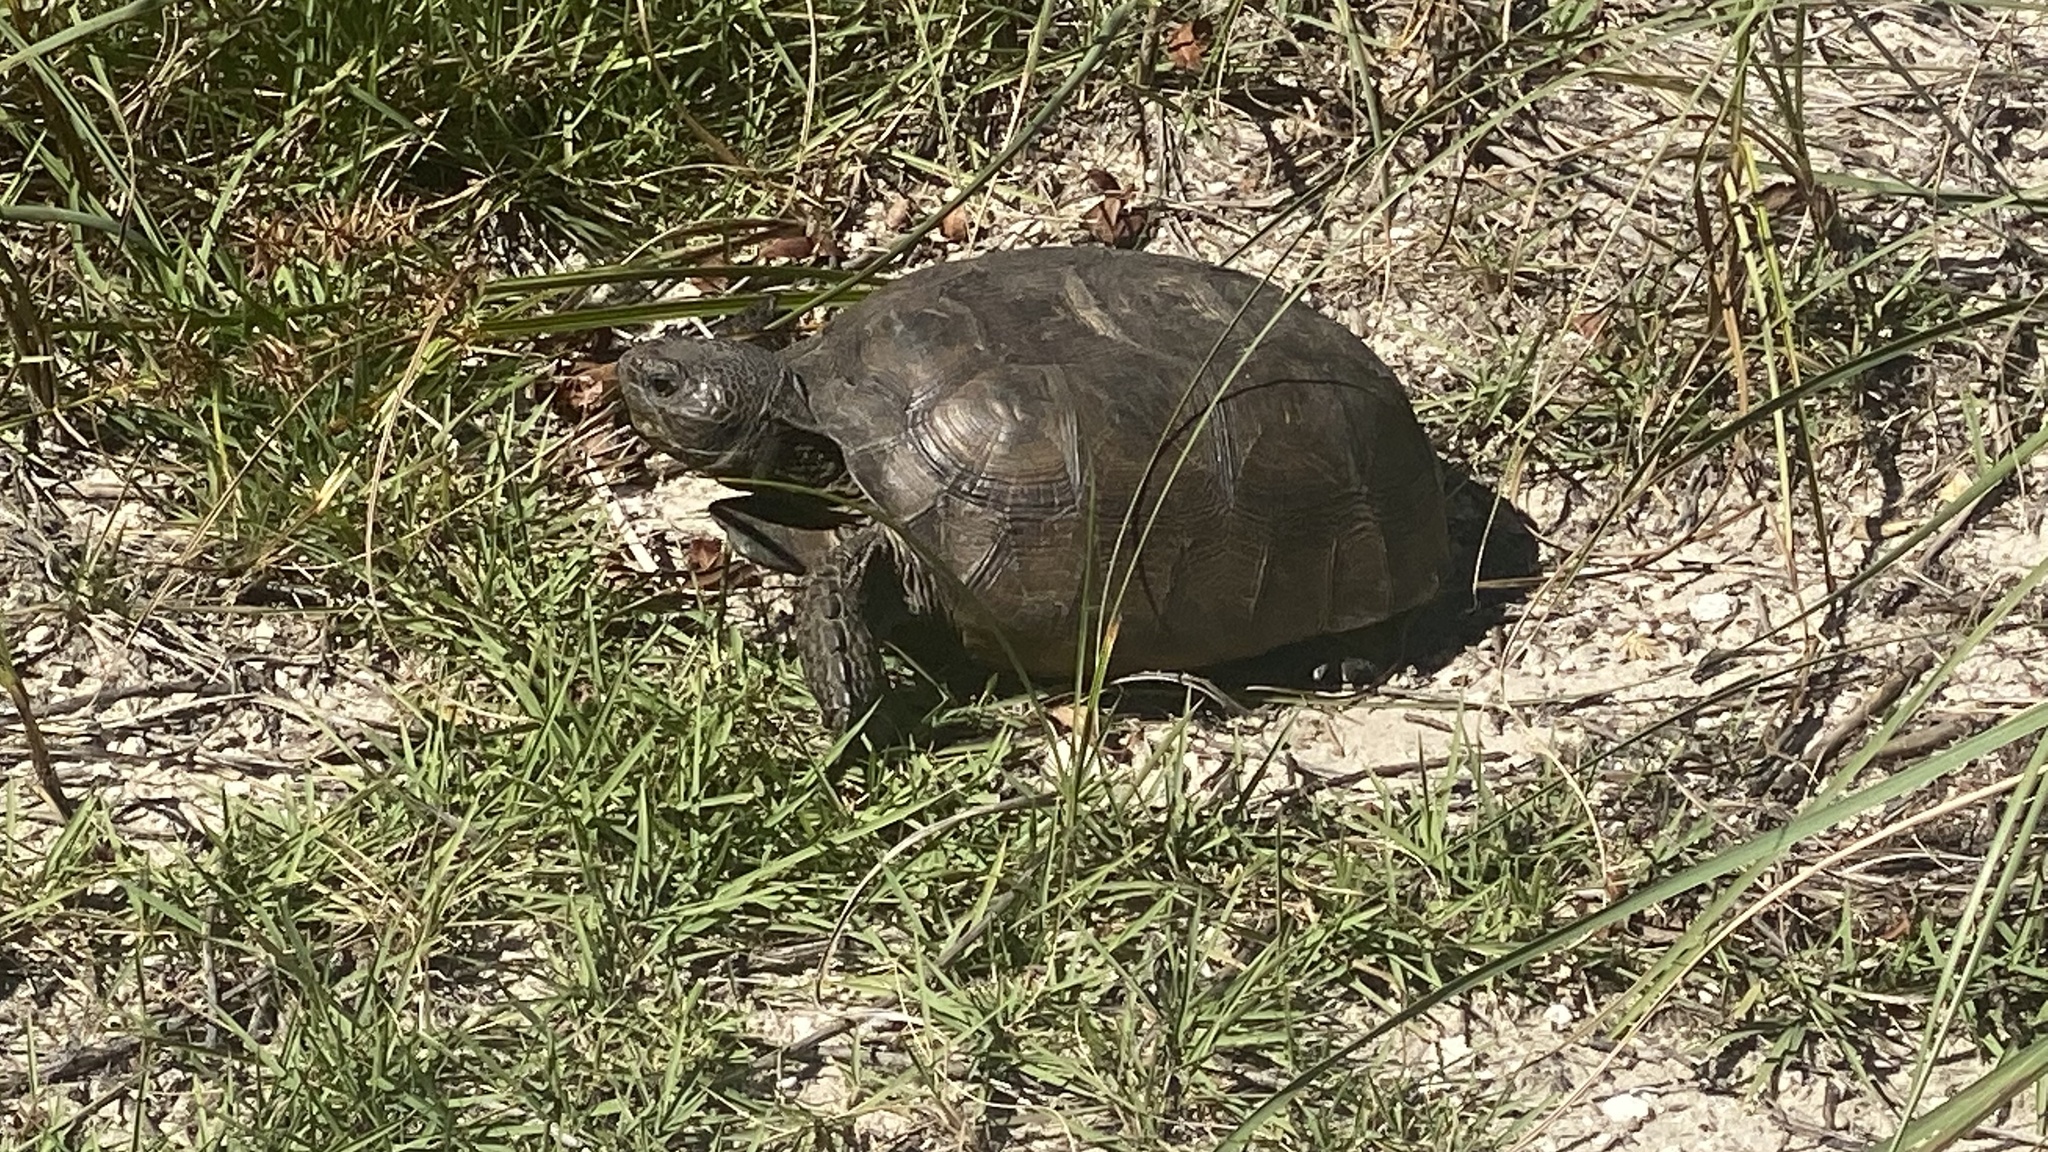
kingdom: Animalia
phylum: Chordata
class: Testudines
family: Testudinidae
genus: Gopherus
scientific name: Gopherus polyphemus
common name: Florida gopher tortoise
